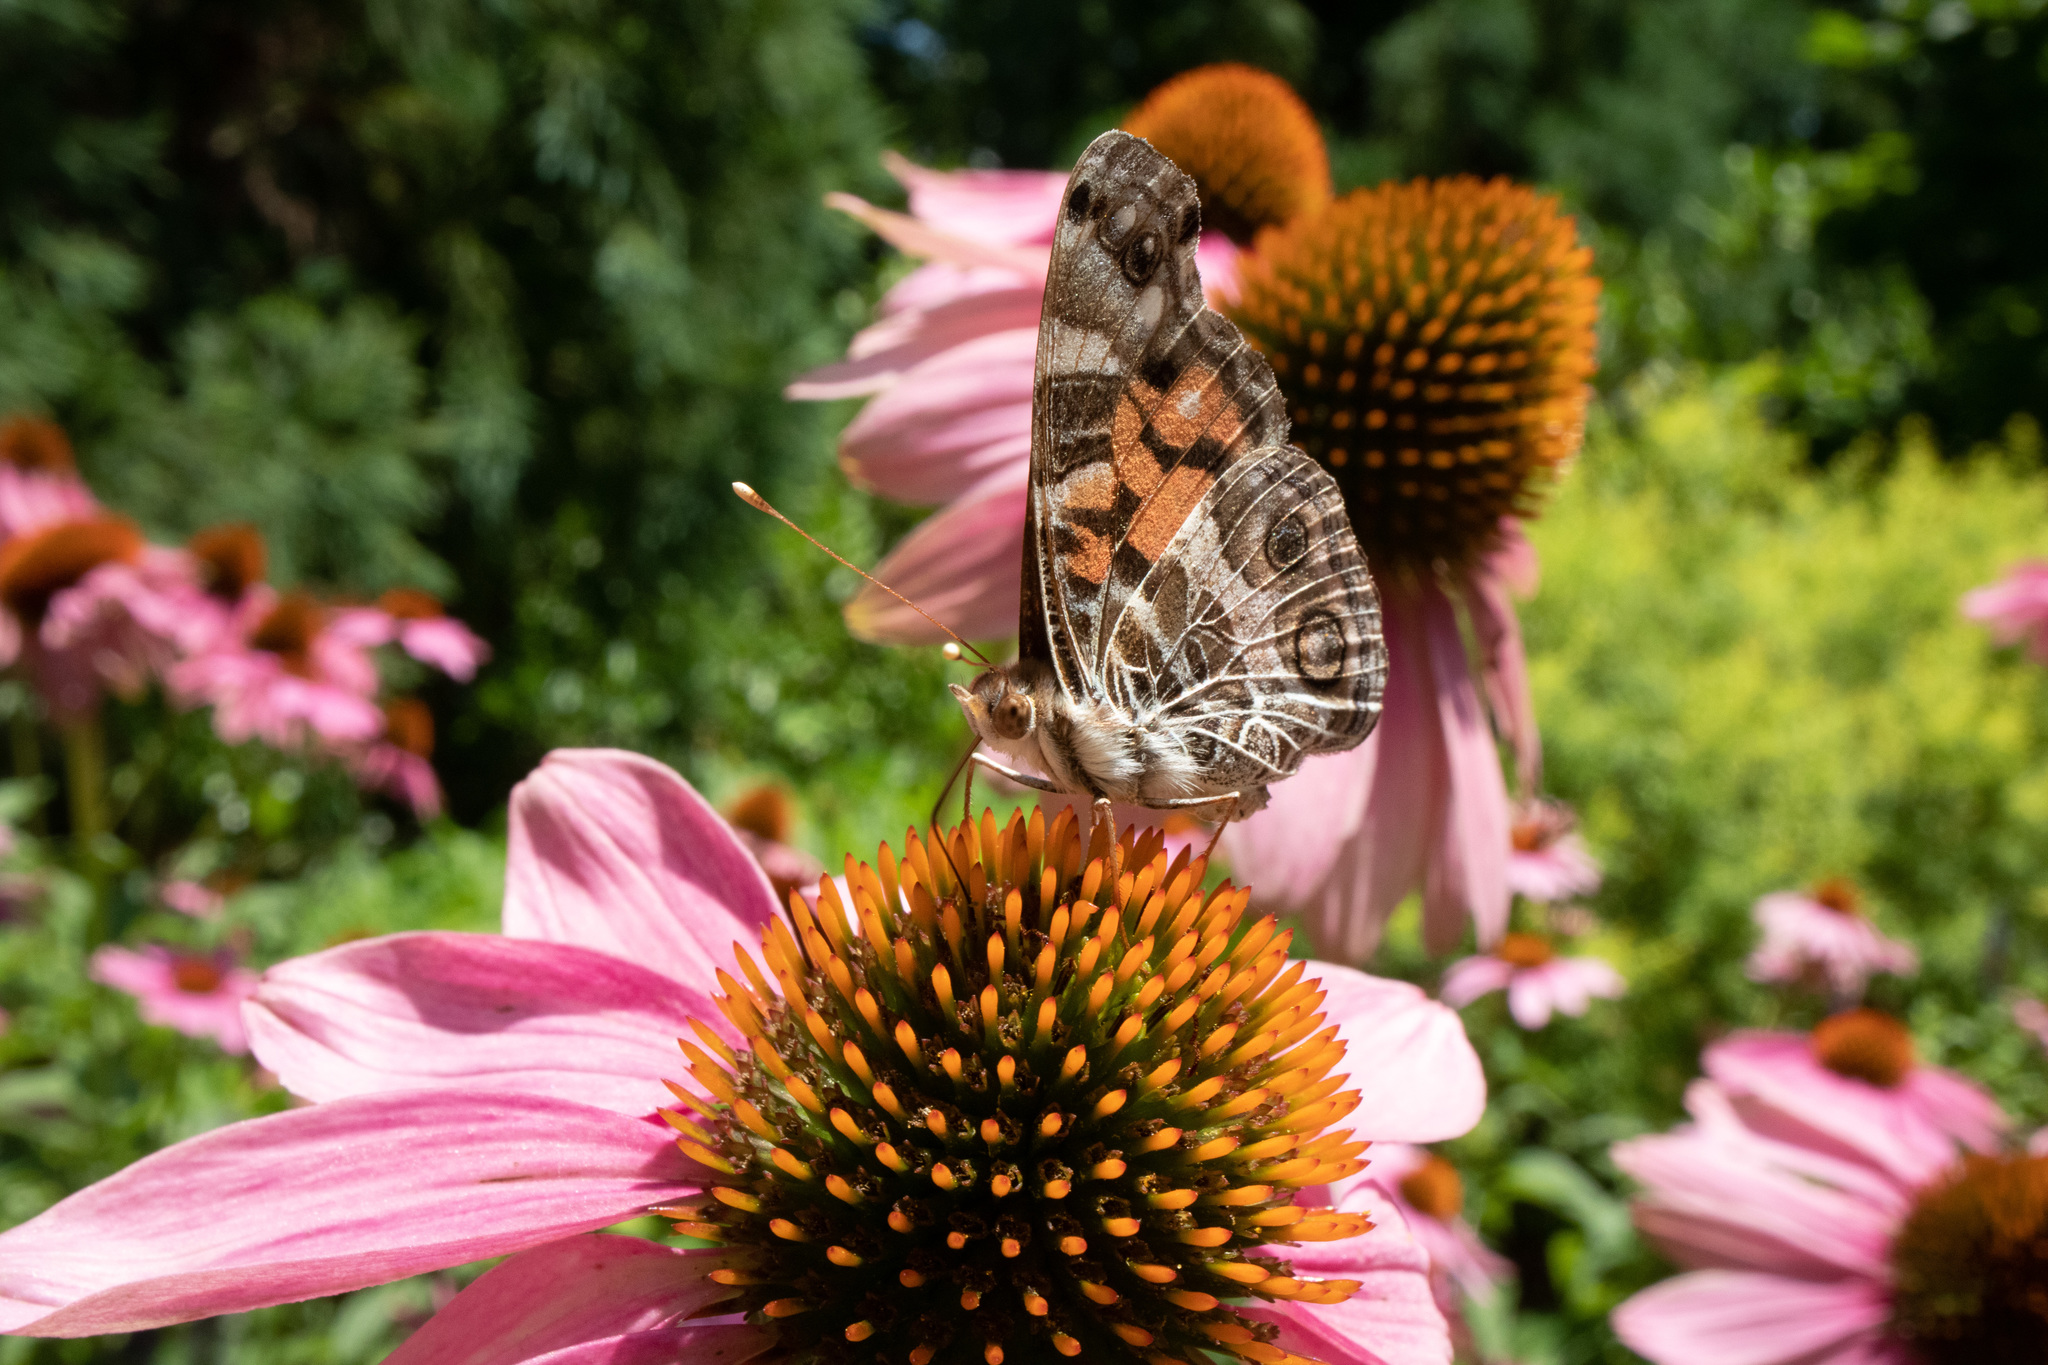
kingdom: Animalia
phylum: Arthropoda
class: Insecta
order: Lepidoptera
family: Nymphalidae
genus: Vanessa
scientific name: Vanessa virginiensis
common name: American lady
